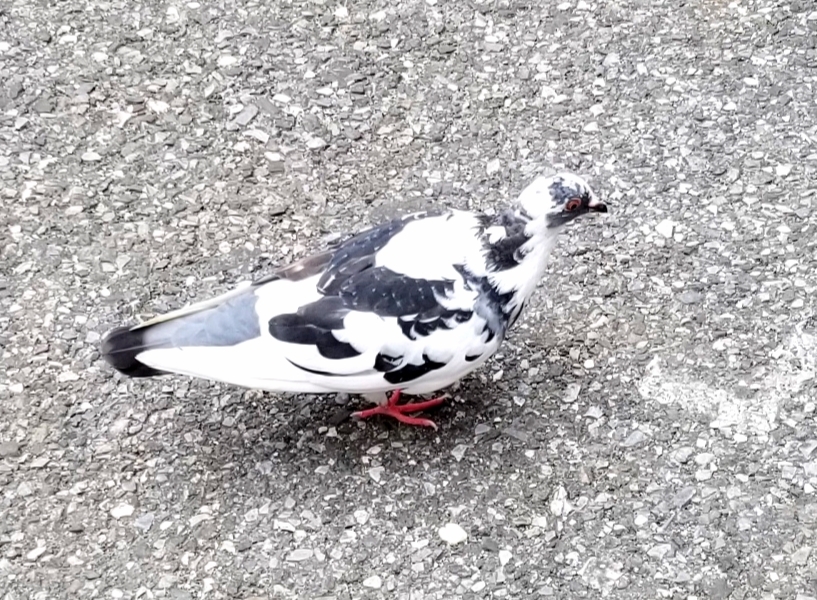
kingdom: Animalia
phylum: Chordata
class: Aves
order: Columbiformes
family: Columbidae
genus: Columba
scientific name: Columba livia
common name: Rock pigeon
